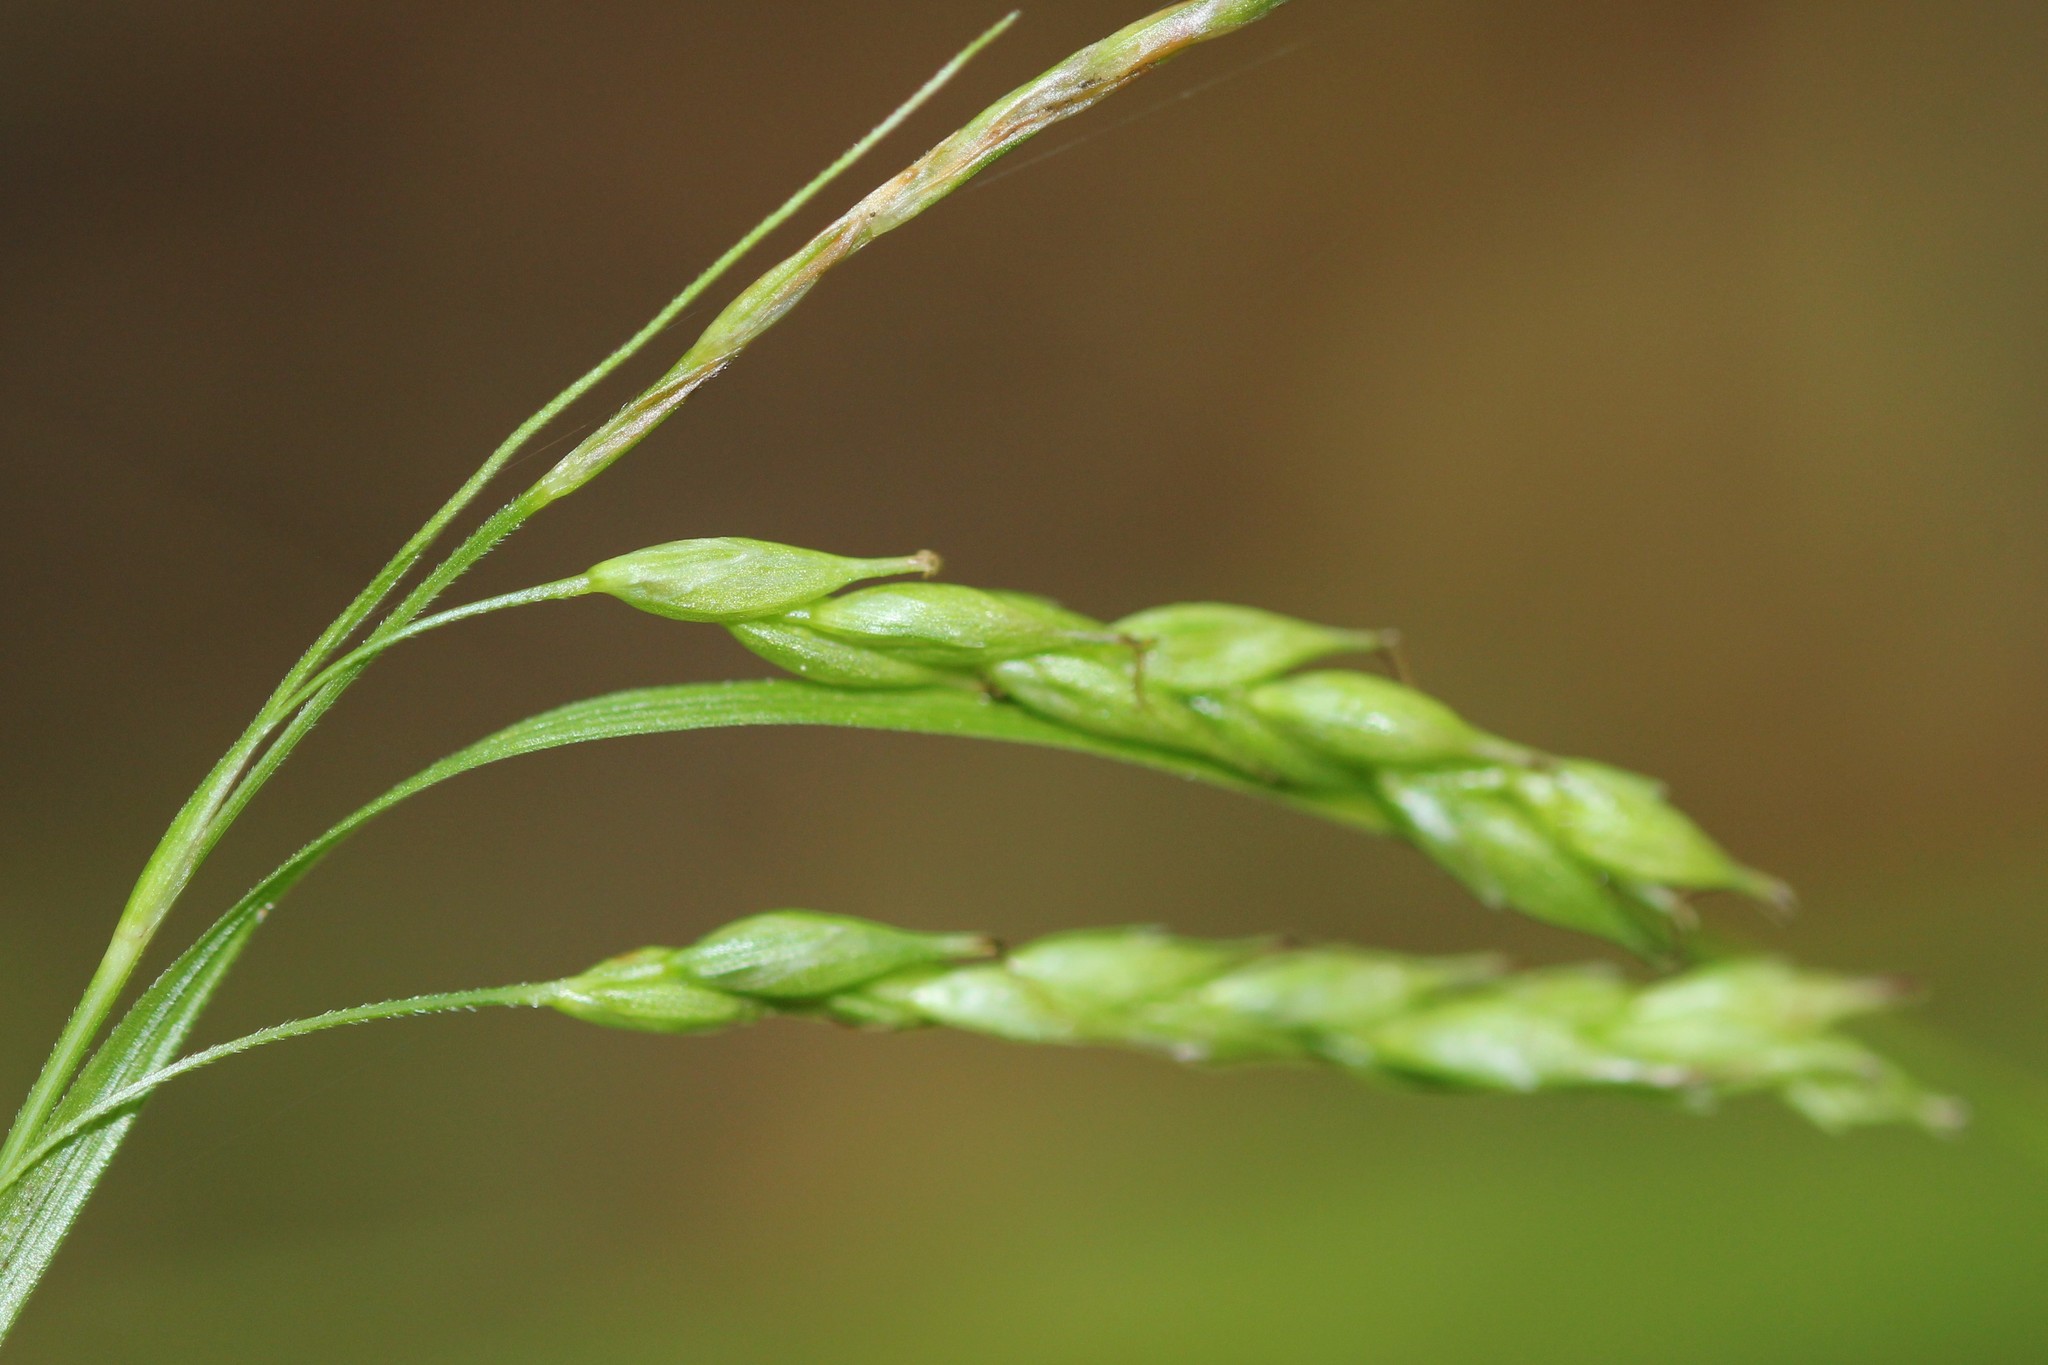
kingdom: Plantae
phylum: Tracheophyta
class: Liliopsida
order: Poales
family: Cyperaceae
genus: Carex
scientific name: Carex debilis
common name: White-edge sedge
